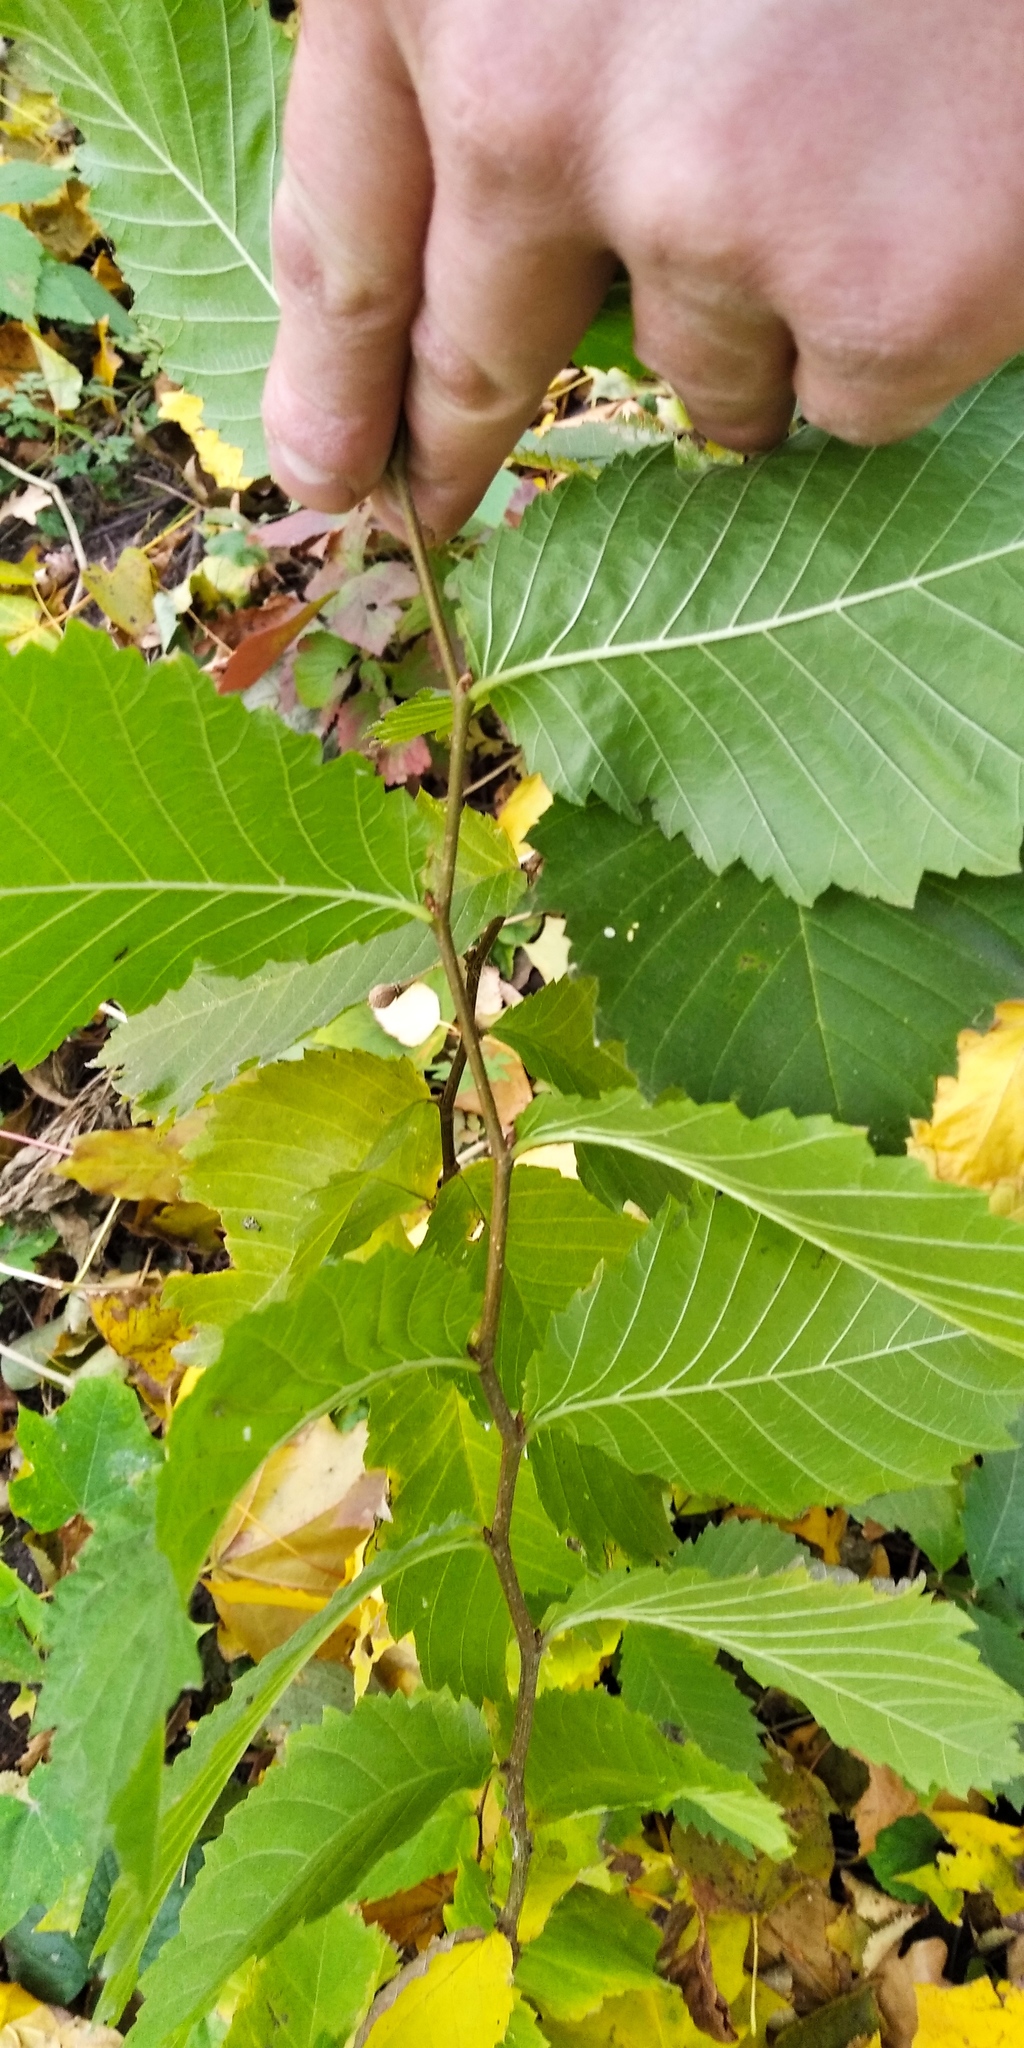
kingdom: Plantae
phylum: Tracheophyta
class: Magnoliopsida
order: Rosales
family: Ulmaceae
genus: Ulmus
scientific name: Ulmus glabra
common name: Wych elm
